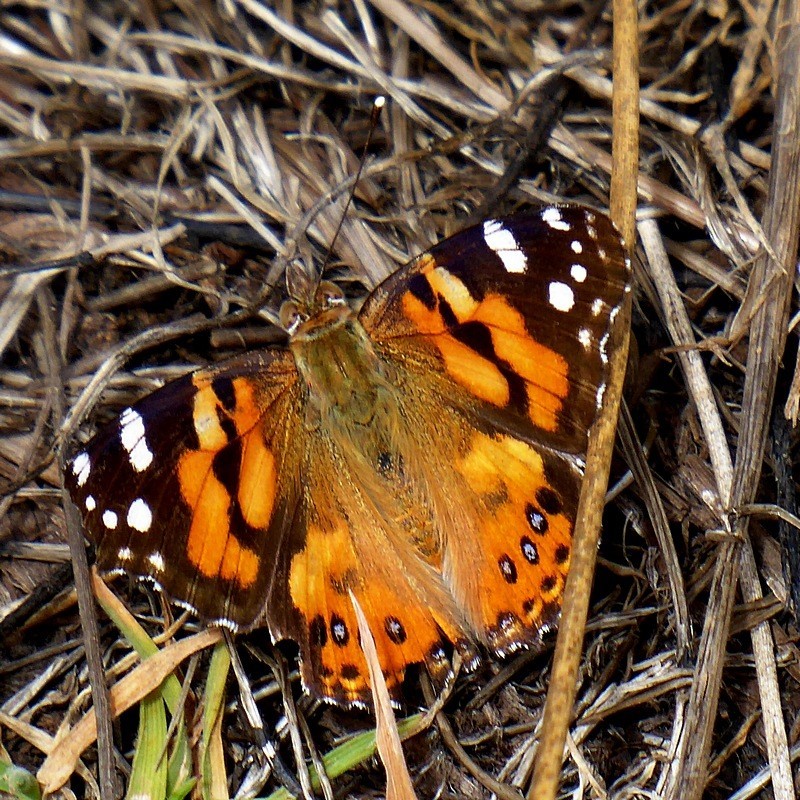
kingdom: Animalia
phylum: Arthropoda
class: Insecta
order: Lepidoptera
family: Nymphalidae
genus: Vanessa
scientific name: Vanessa kershawi
